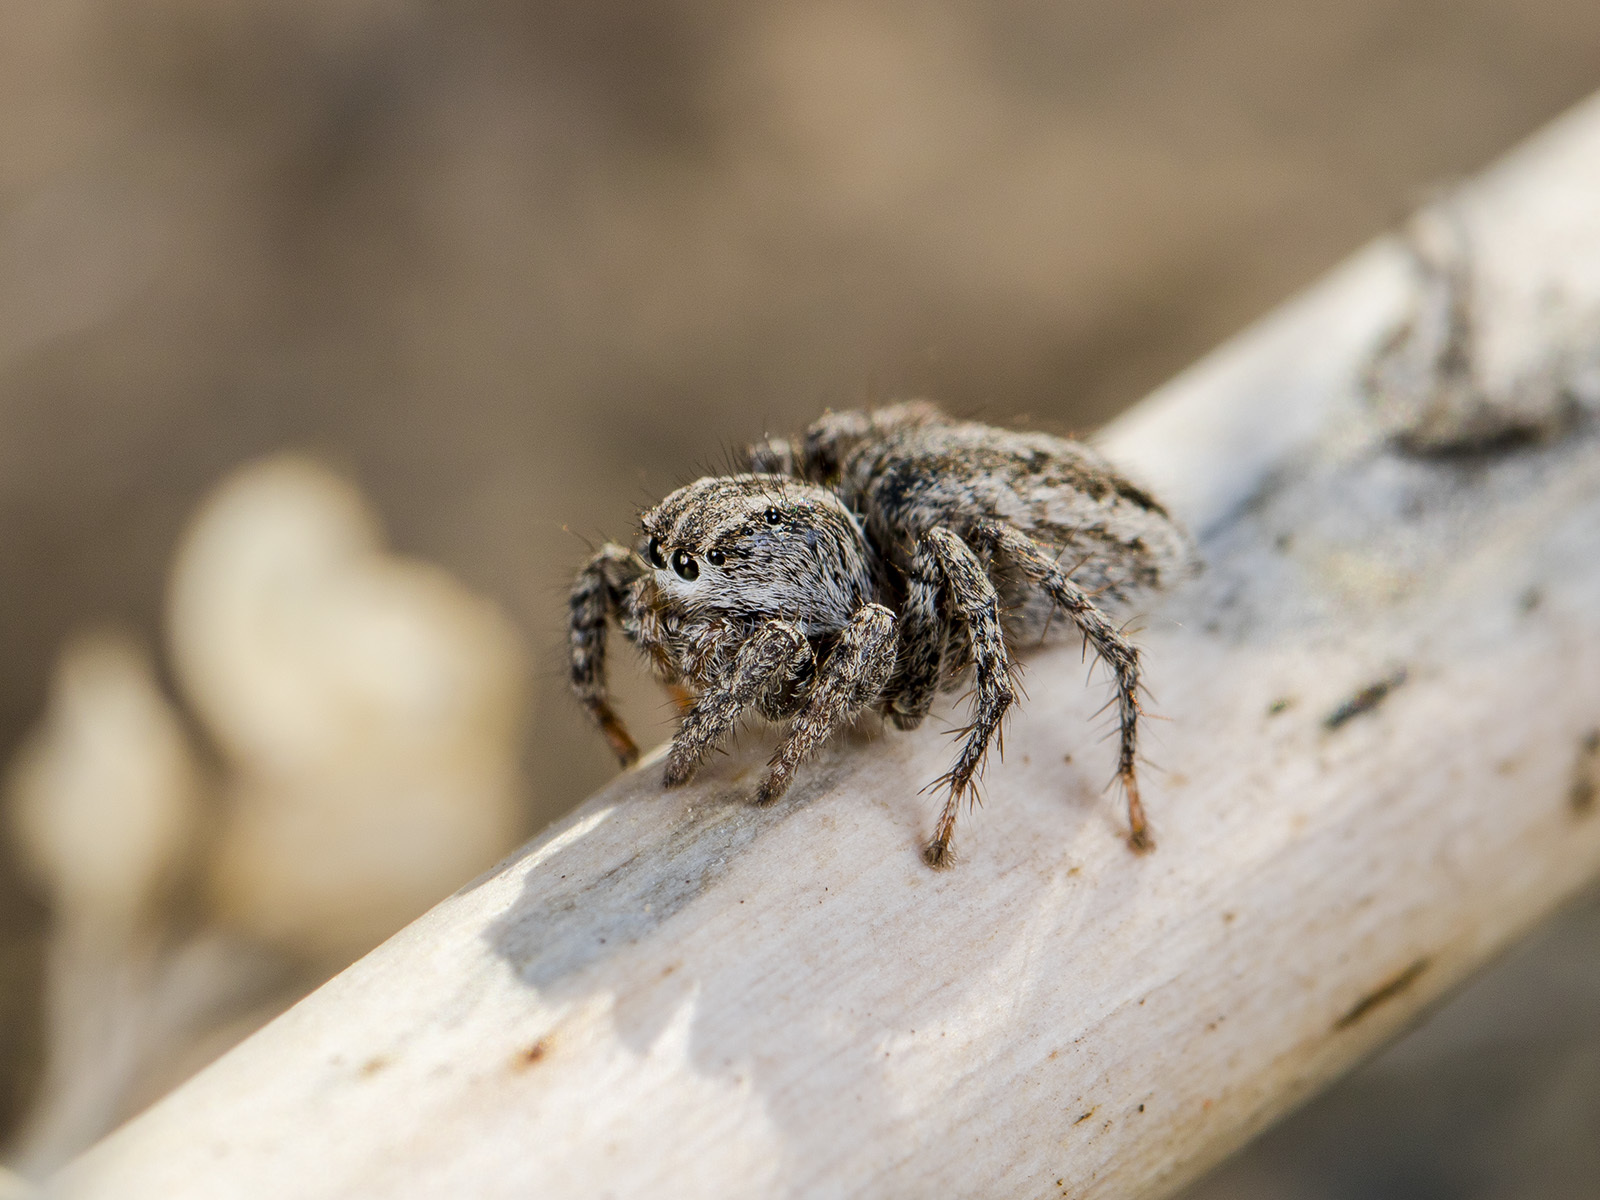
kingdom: Animalia
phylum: Arthropoda
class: Arachnida
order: Araneae
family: Salticidae
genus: Aelurillus
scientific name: Aelurillus m-nigrum
